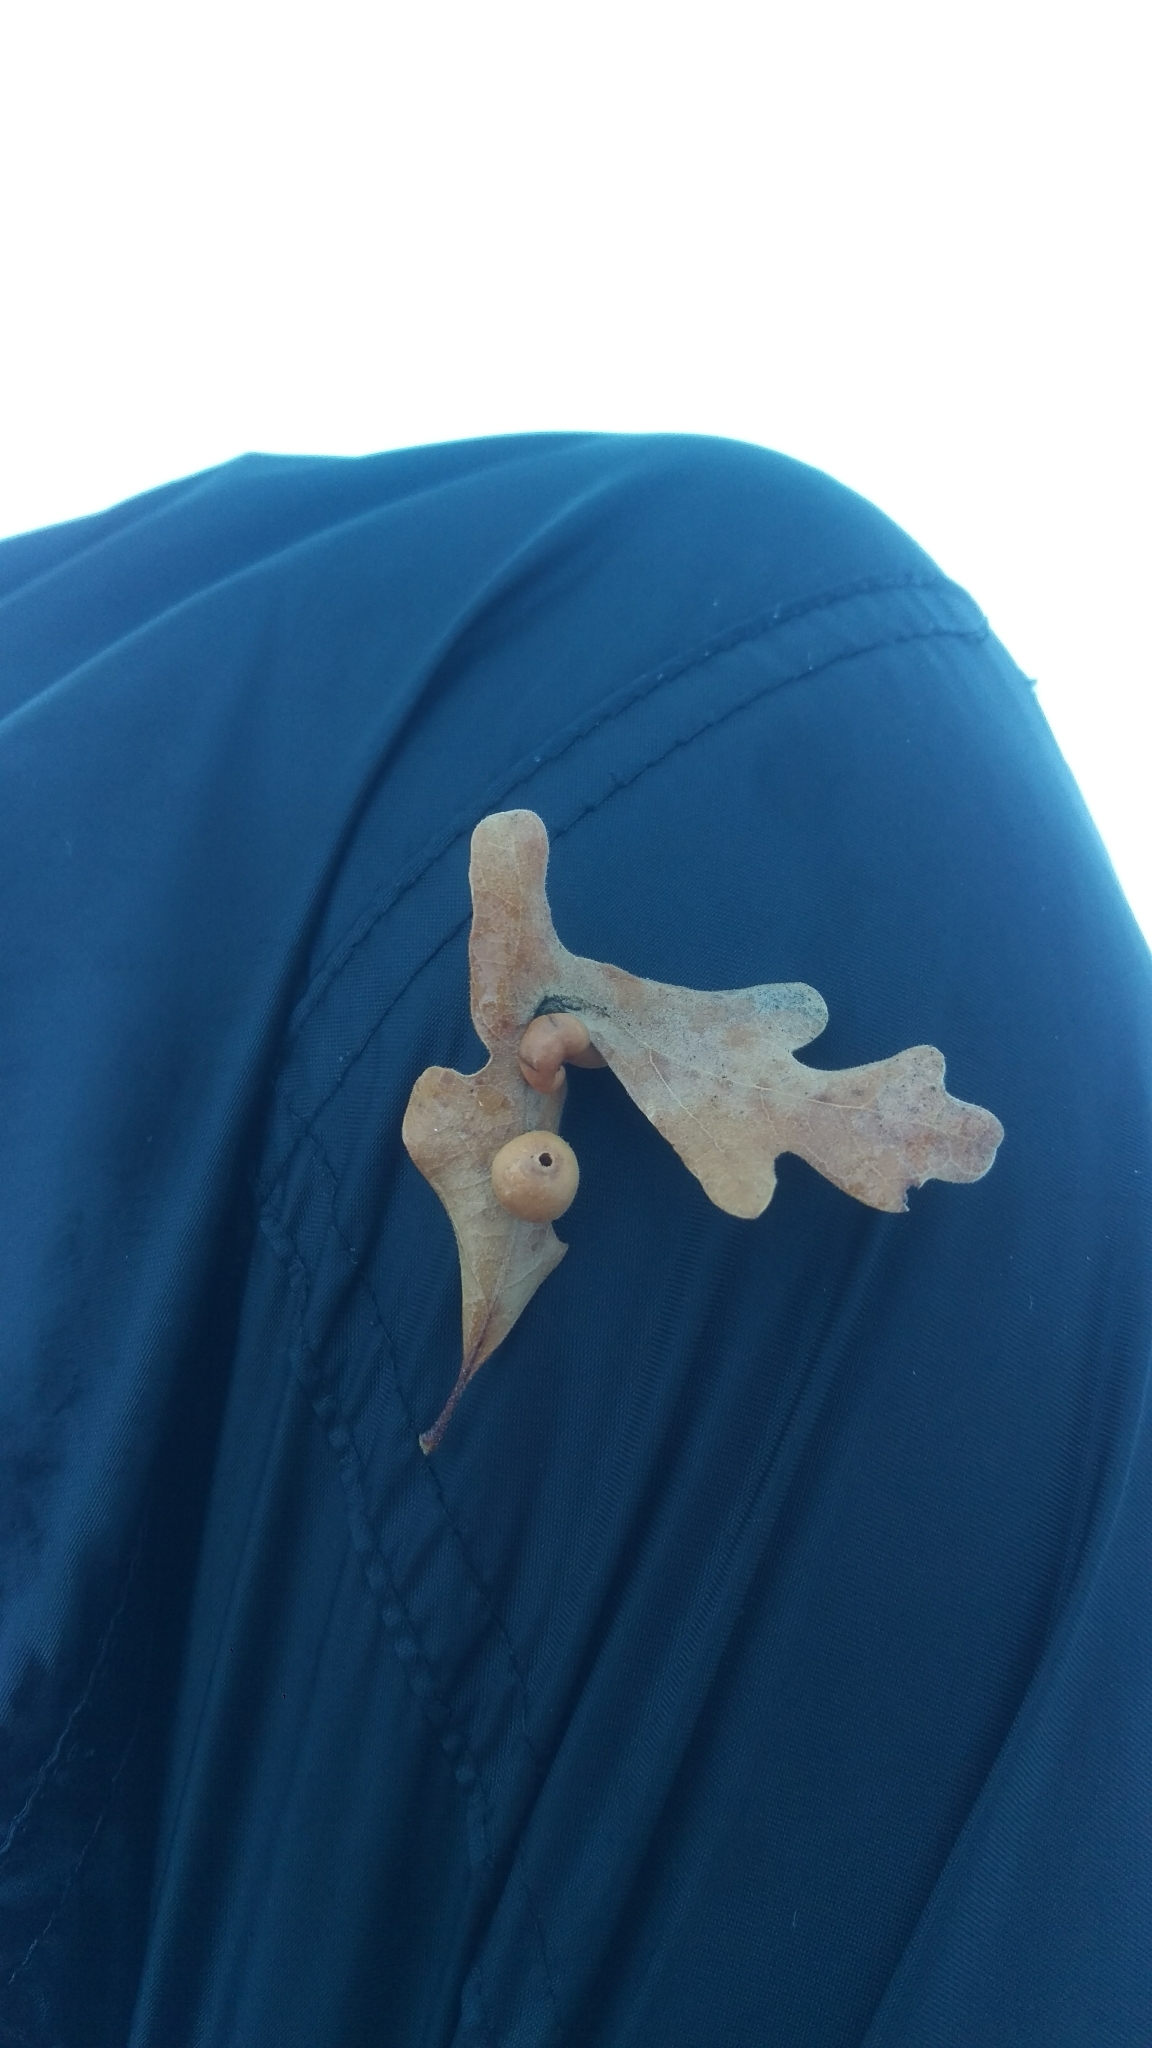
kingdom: Animalia
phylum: Arthropoda
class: Insecta
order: Hymenoptera
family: Cynipidae
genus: Trigonaspis
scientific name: Trigonaspis
